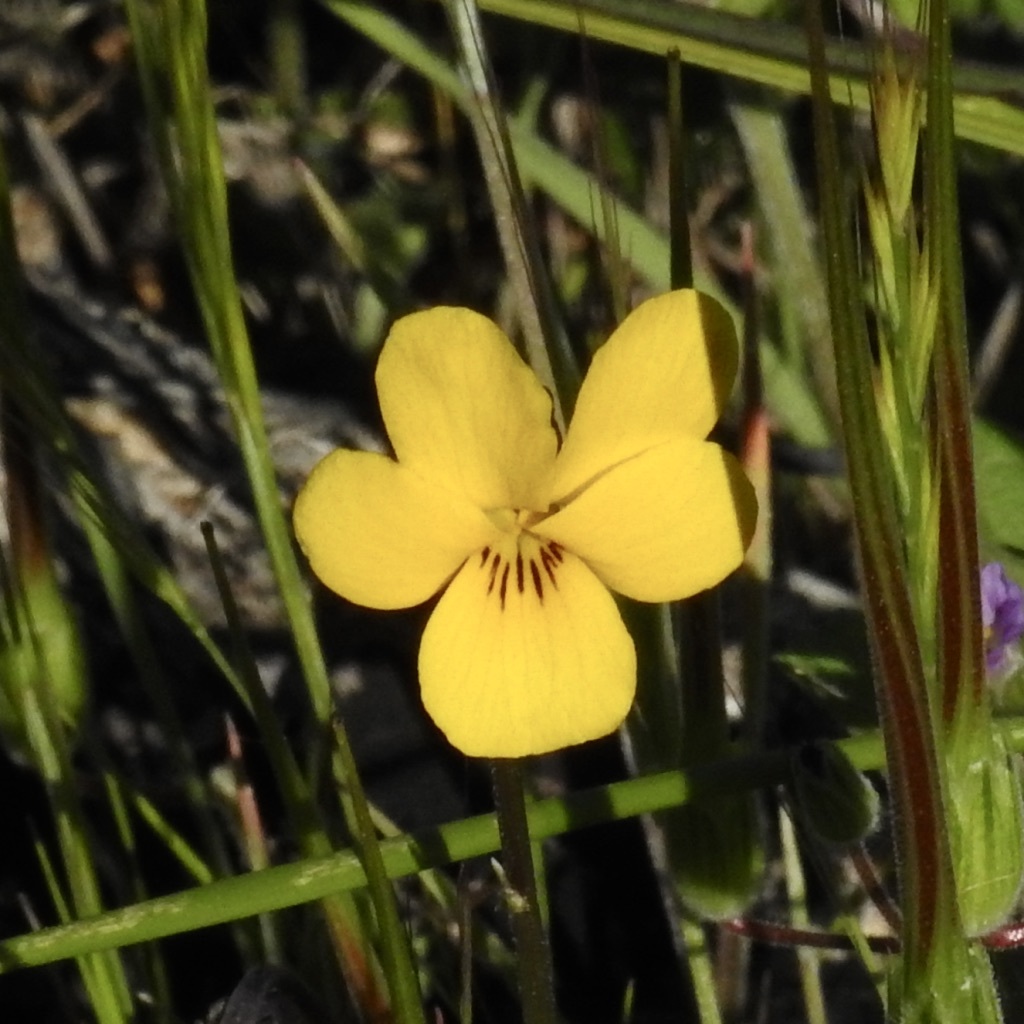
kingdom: Plantae
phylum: Tracheophyta
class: Magnoliopsida
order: Malpighiales
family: Violaceae
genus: Viola
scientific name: Viola pedunculata
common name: California golden violet
